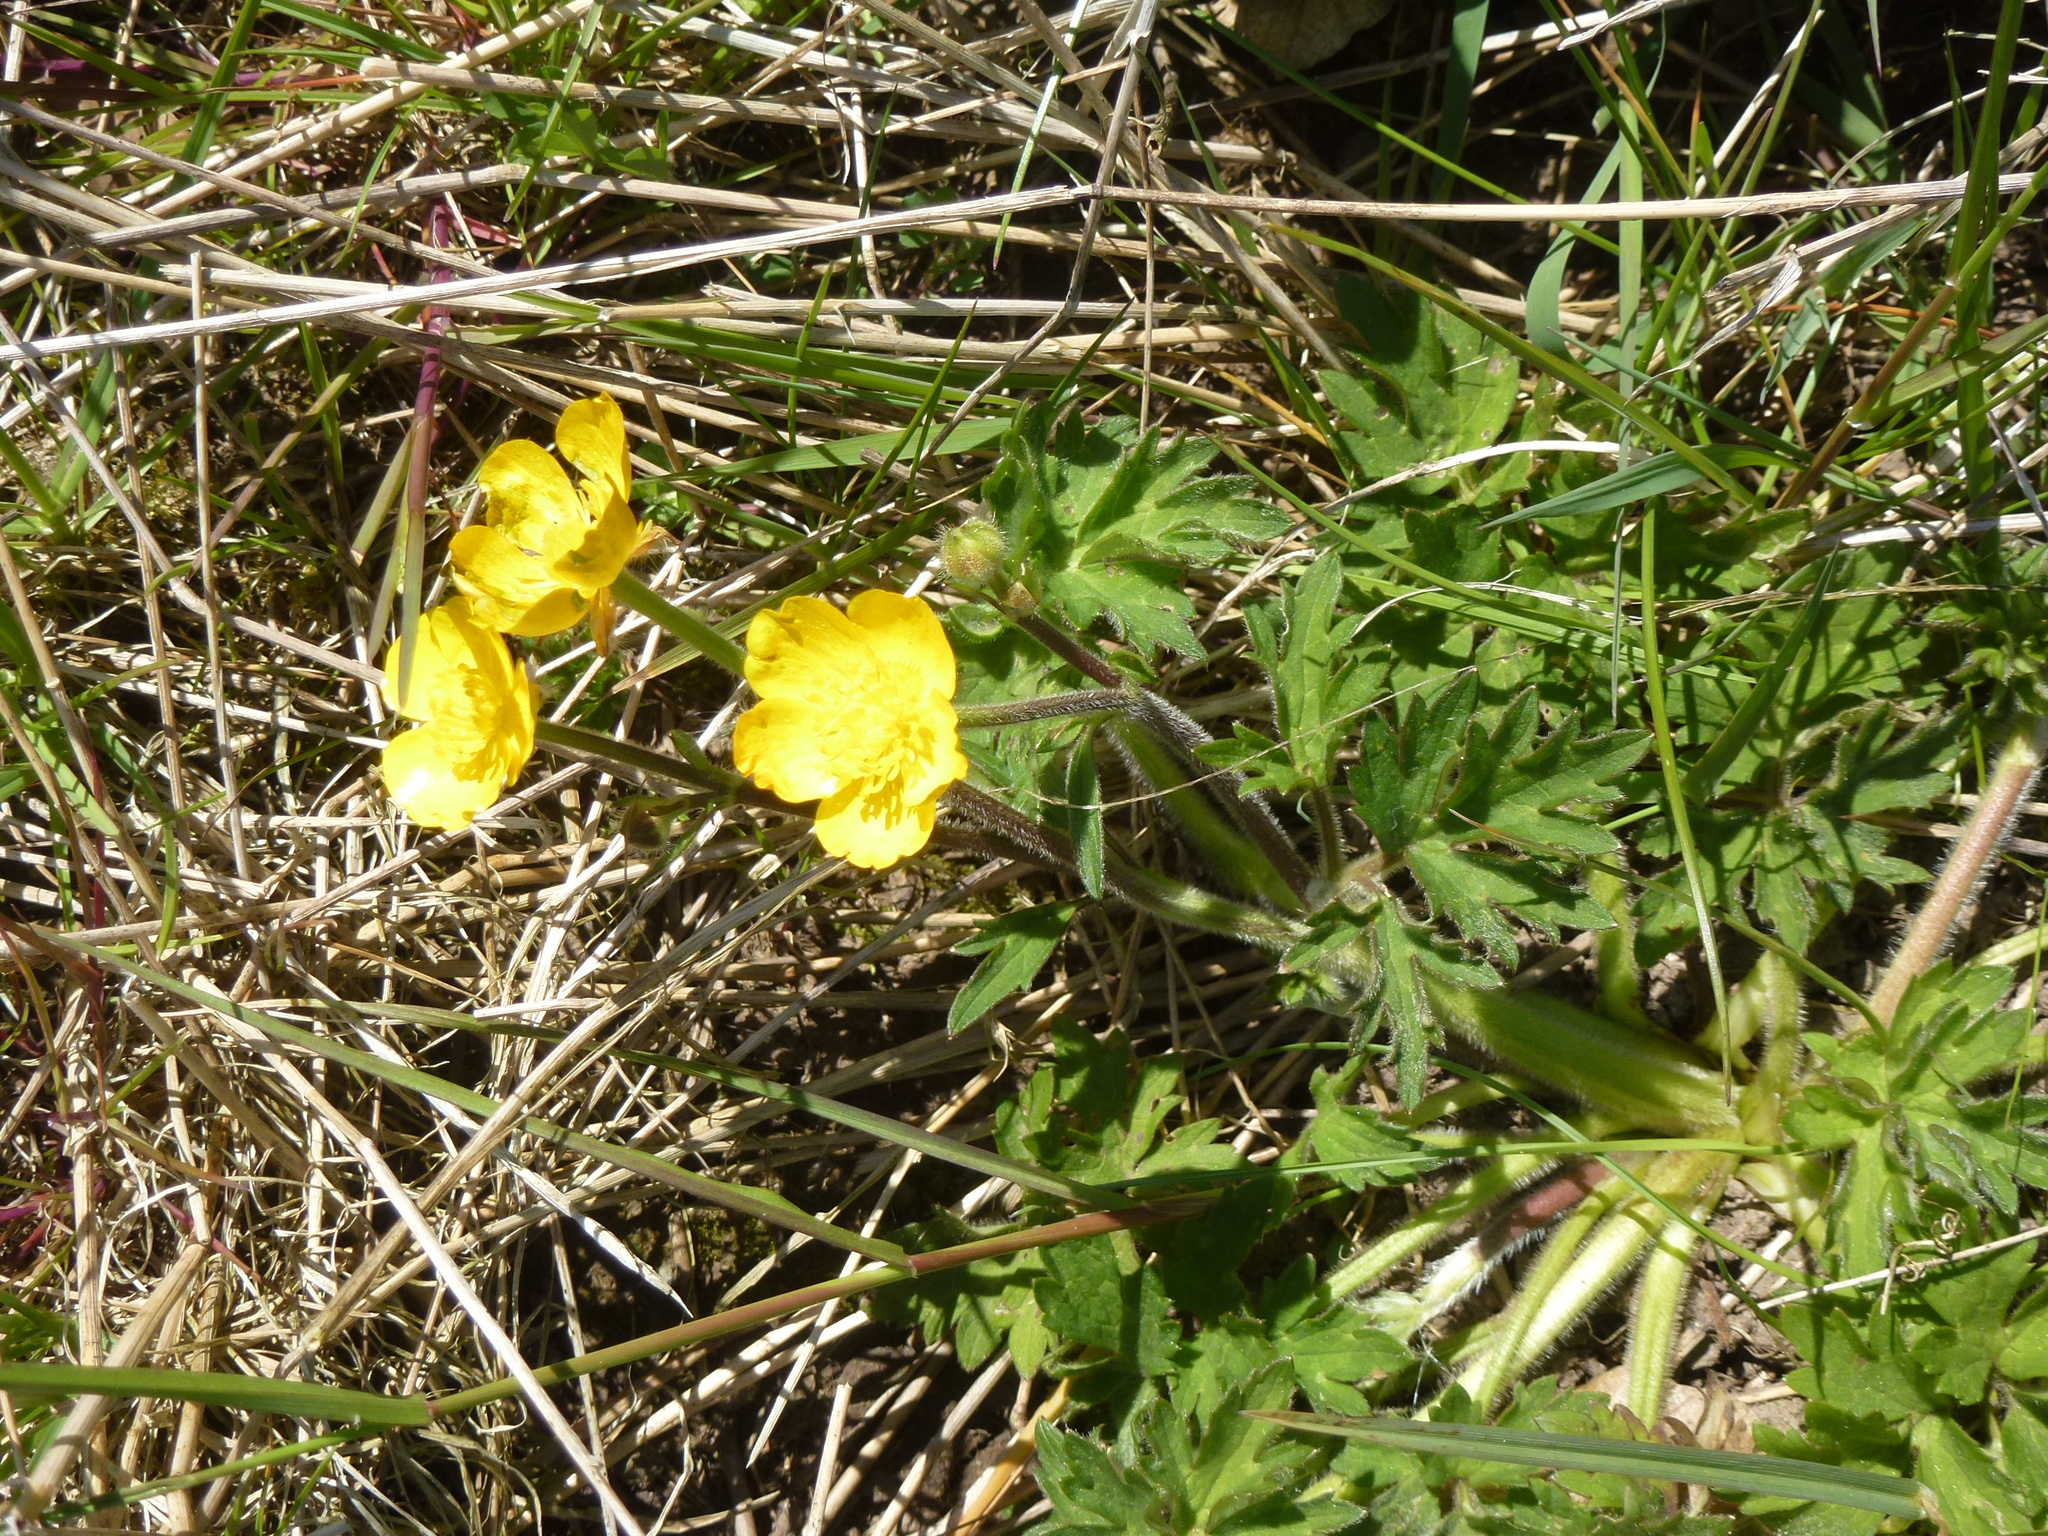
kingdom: Plantae
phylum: Tracheophyta
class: Magnoliopsida
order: Ranunculales
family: Ranunculaceae
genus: Ranunculus
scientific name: Ranunculus acris
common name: Meadow buttercup
